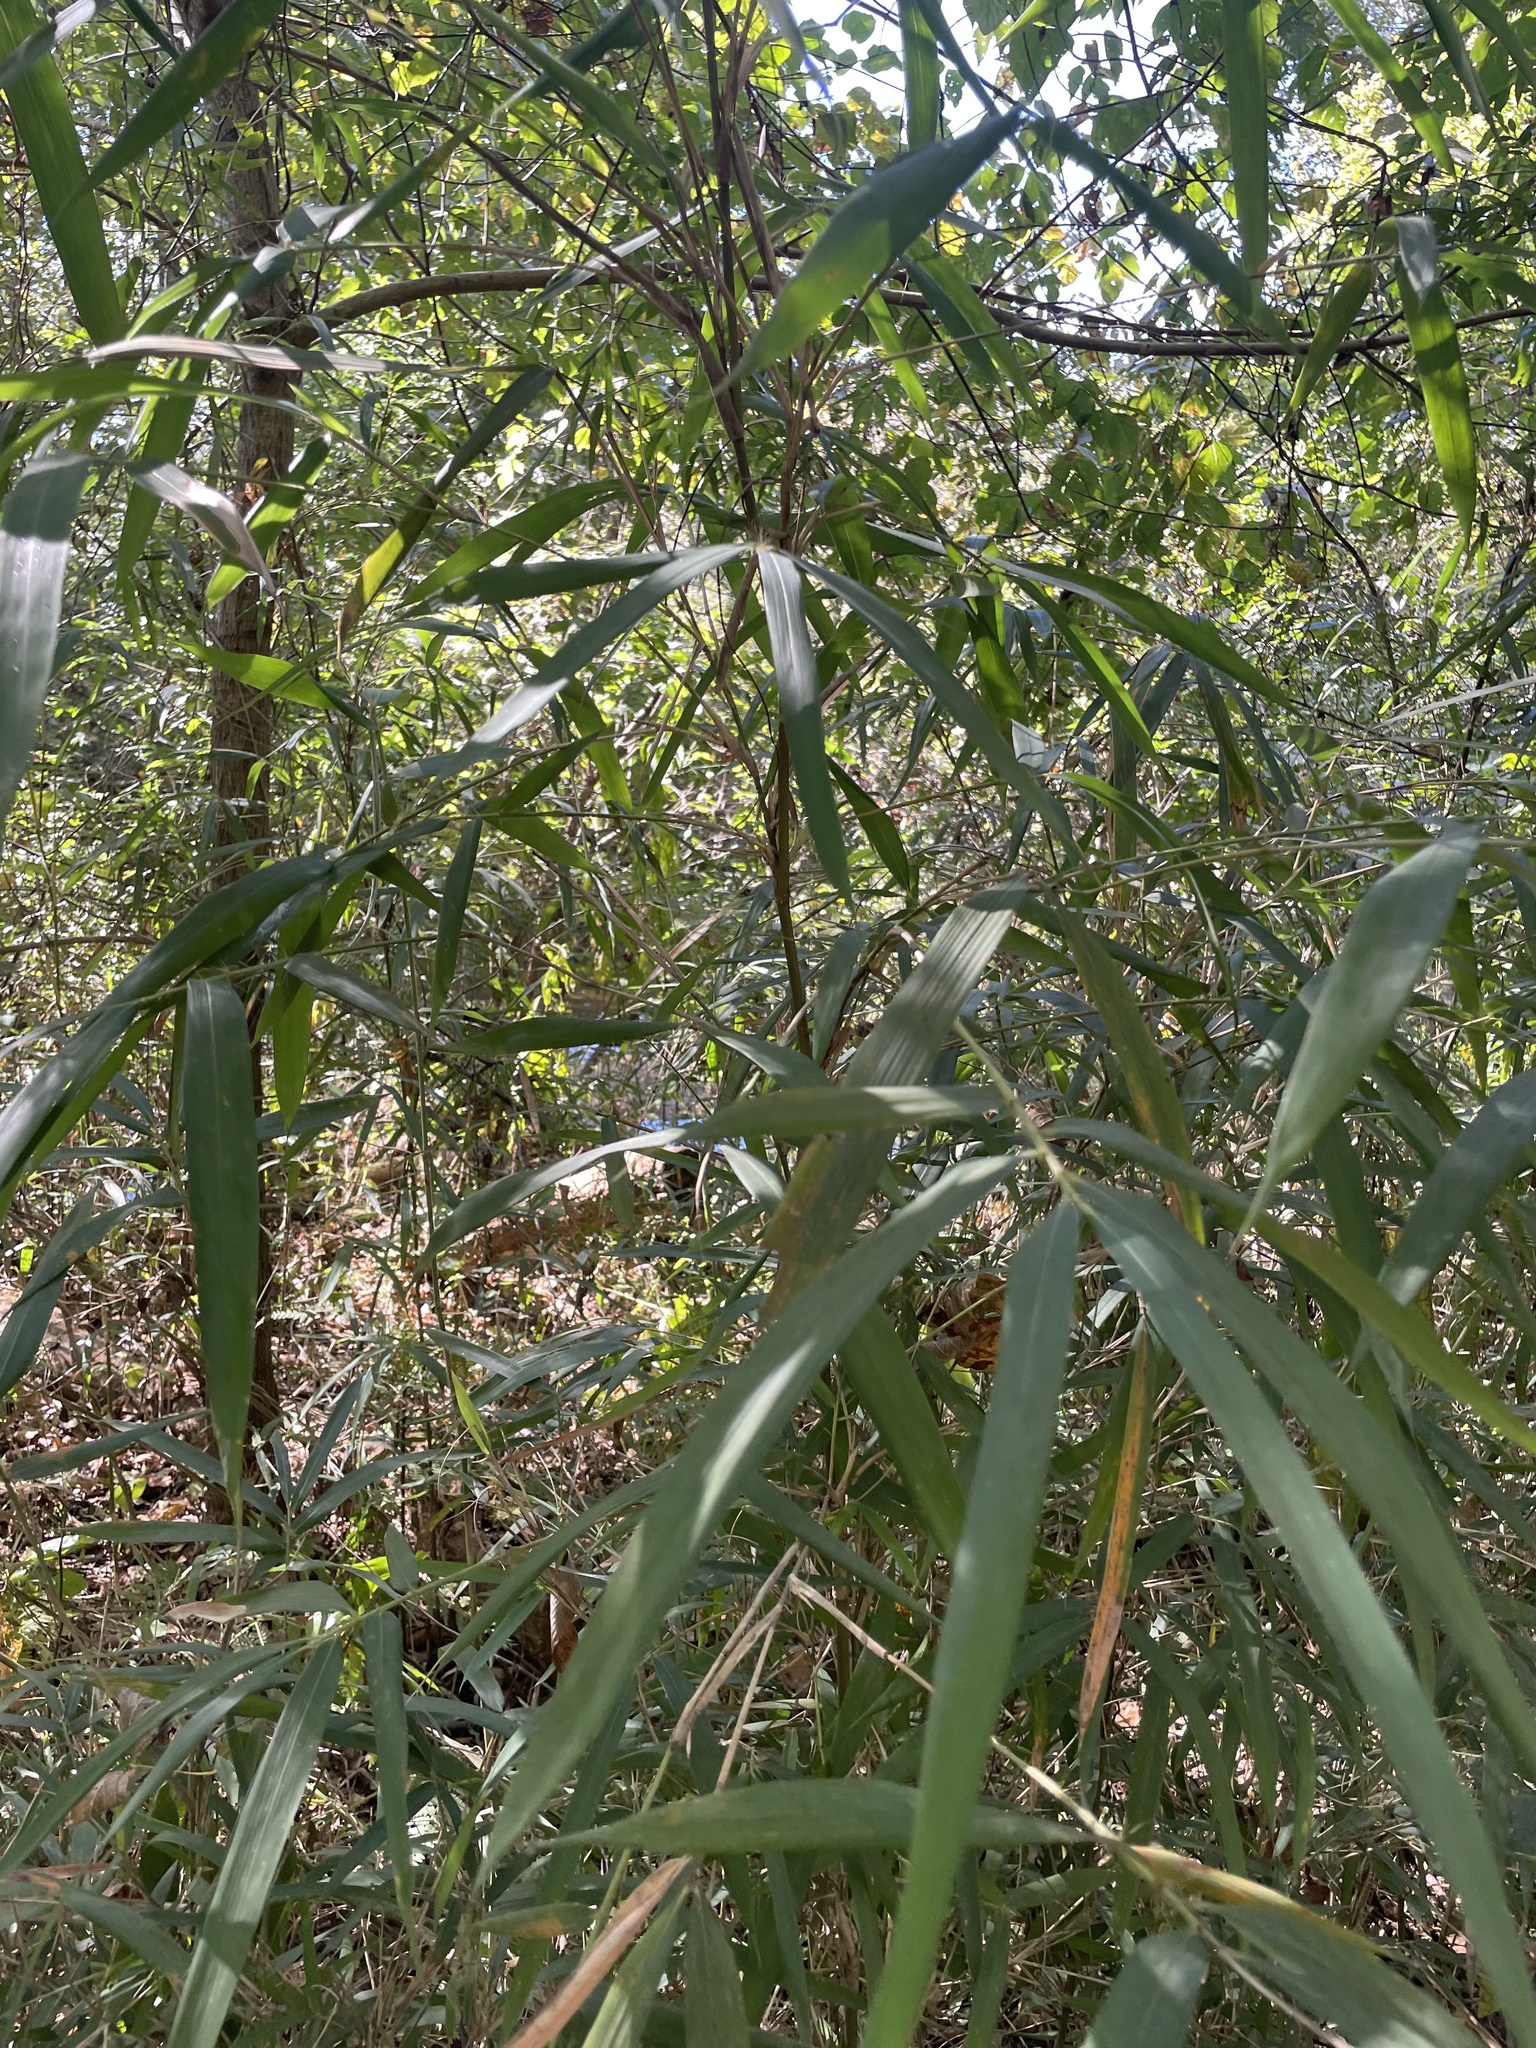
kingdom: Plantae
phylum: Tracheophyta
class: Liliopsida
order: Poales
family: Poaceae
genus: Arundinaria
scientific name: Arundinaria gigantea
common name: Giant cane
